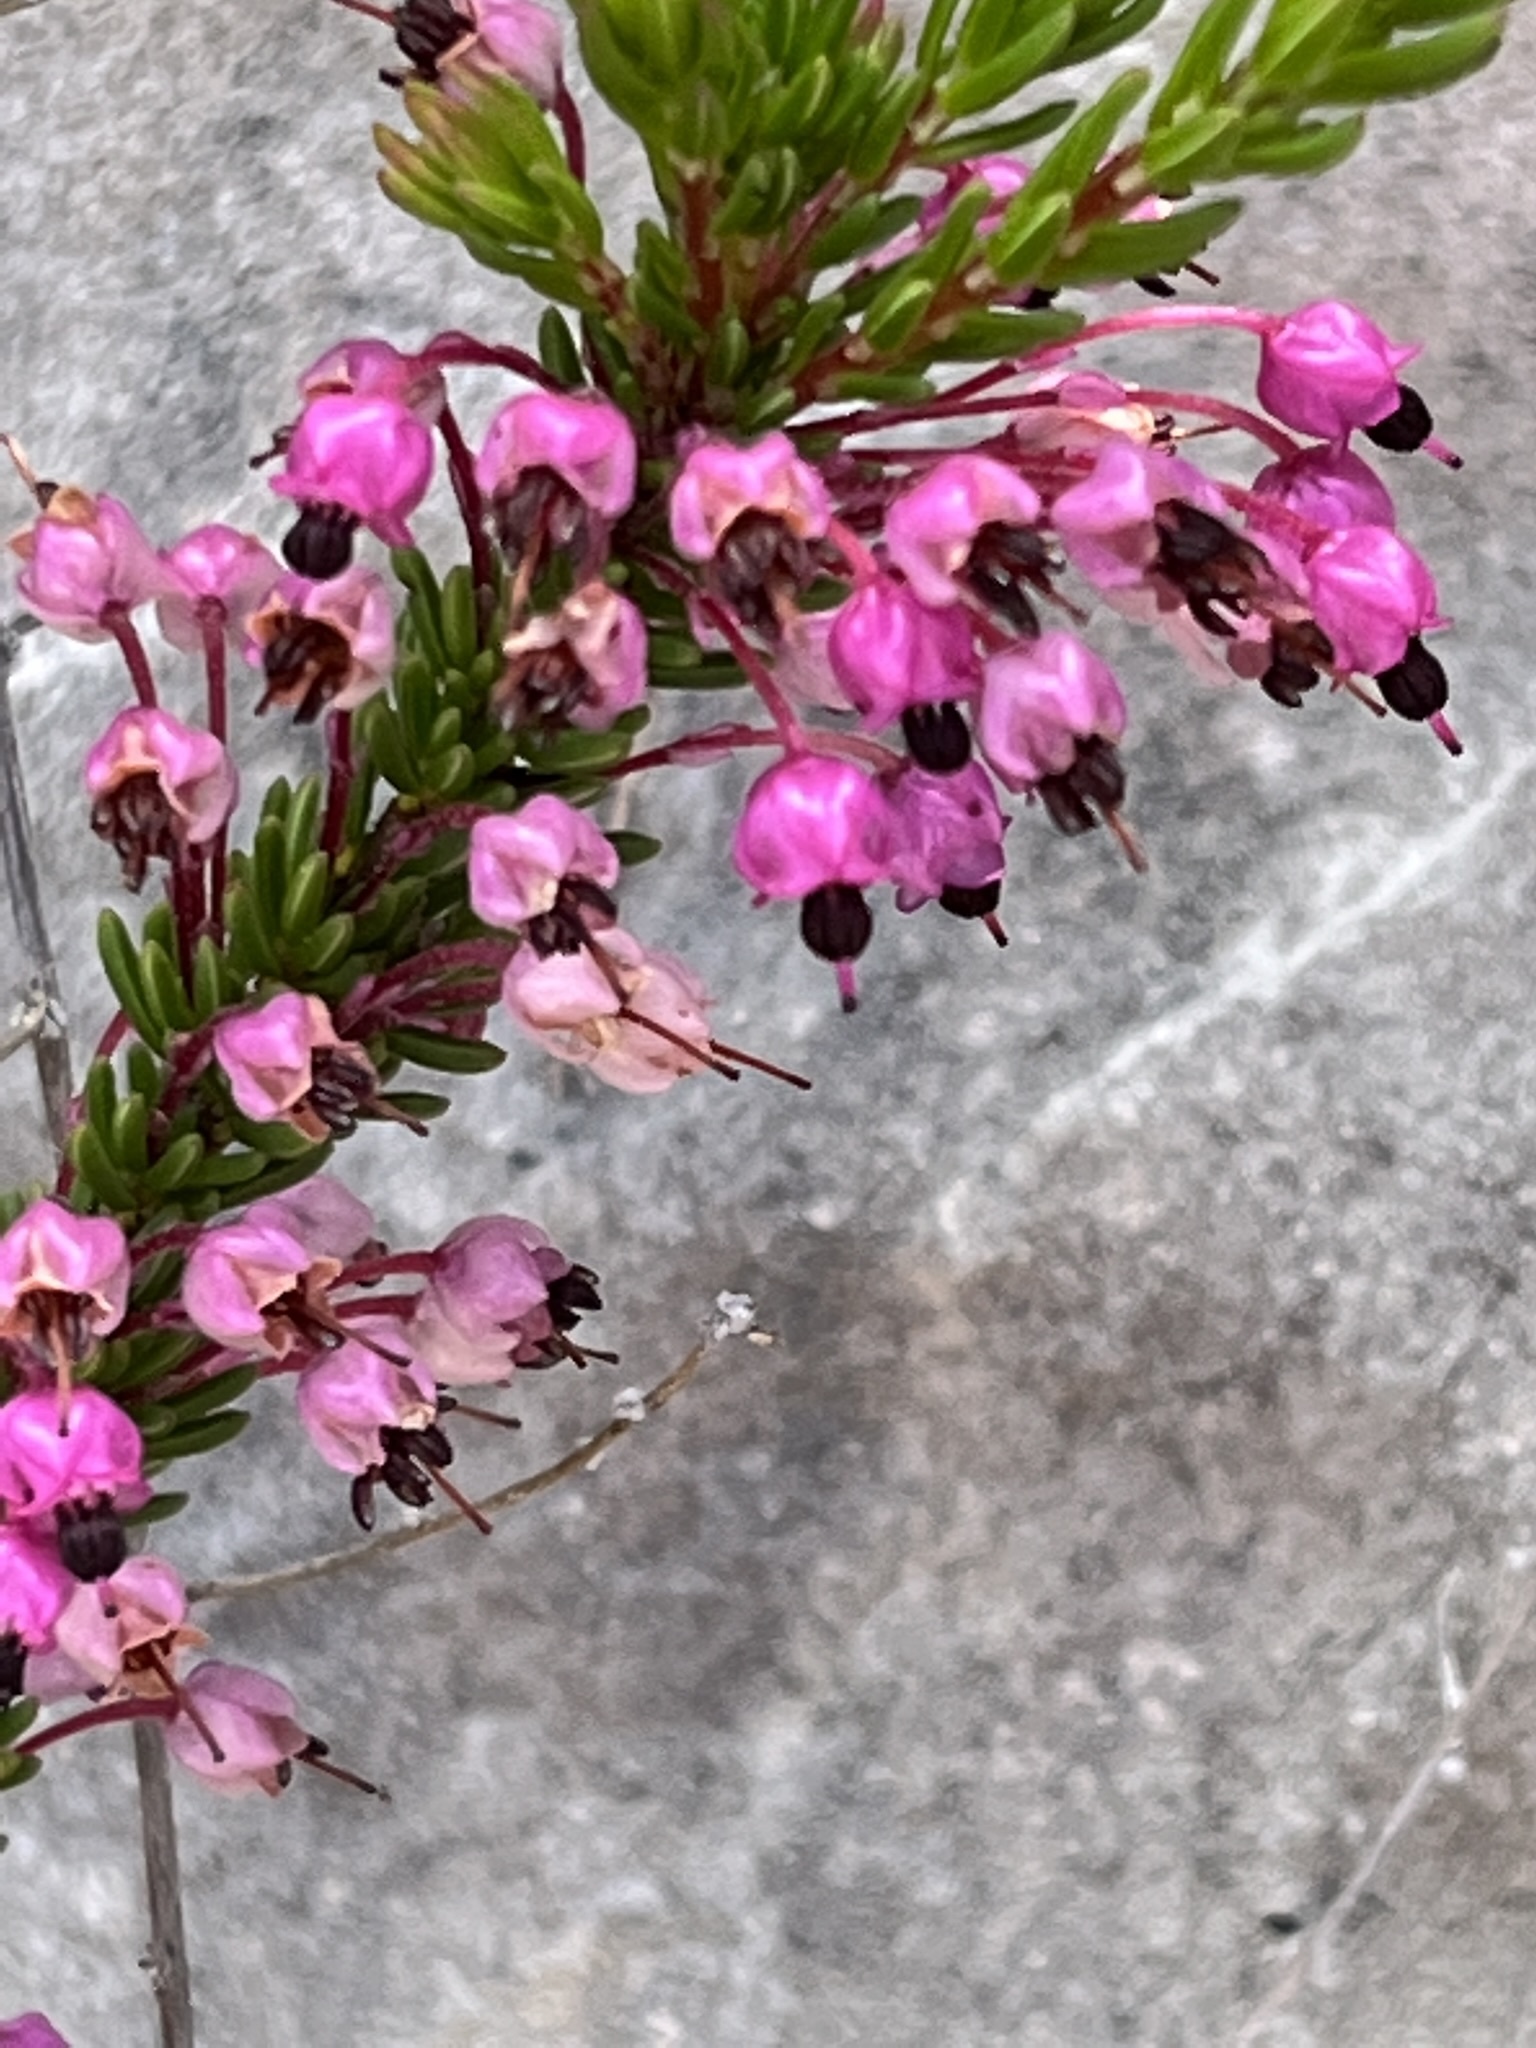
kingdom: Plantae
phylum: Tracheophyta
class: Magnoliopsida
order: Ericales
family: Ericaceae
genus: Erica
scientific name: Erica gracilipes
